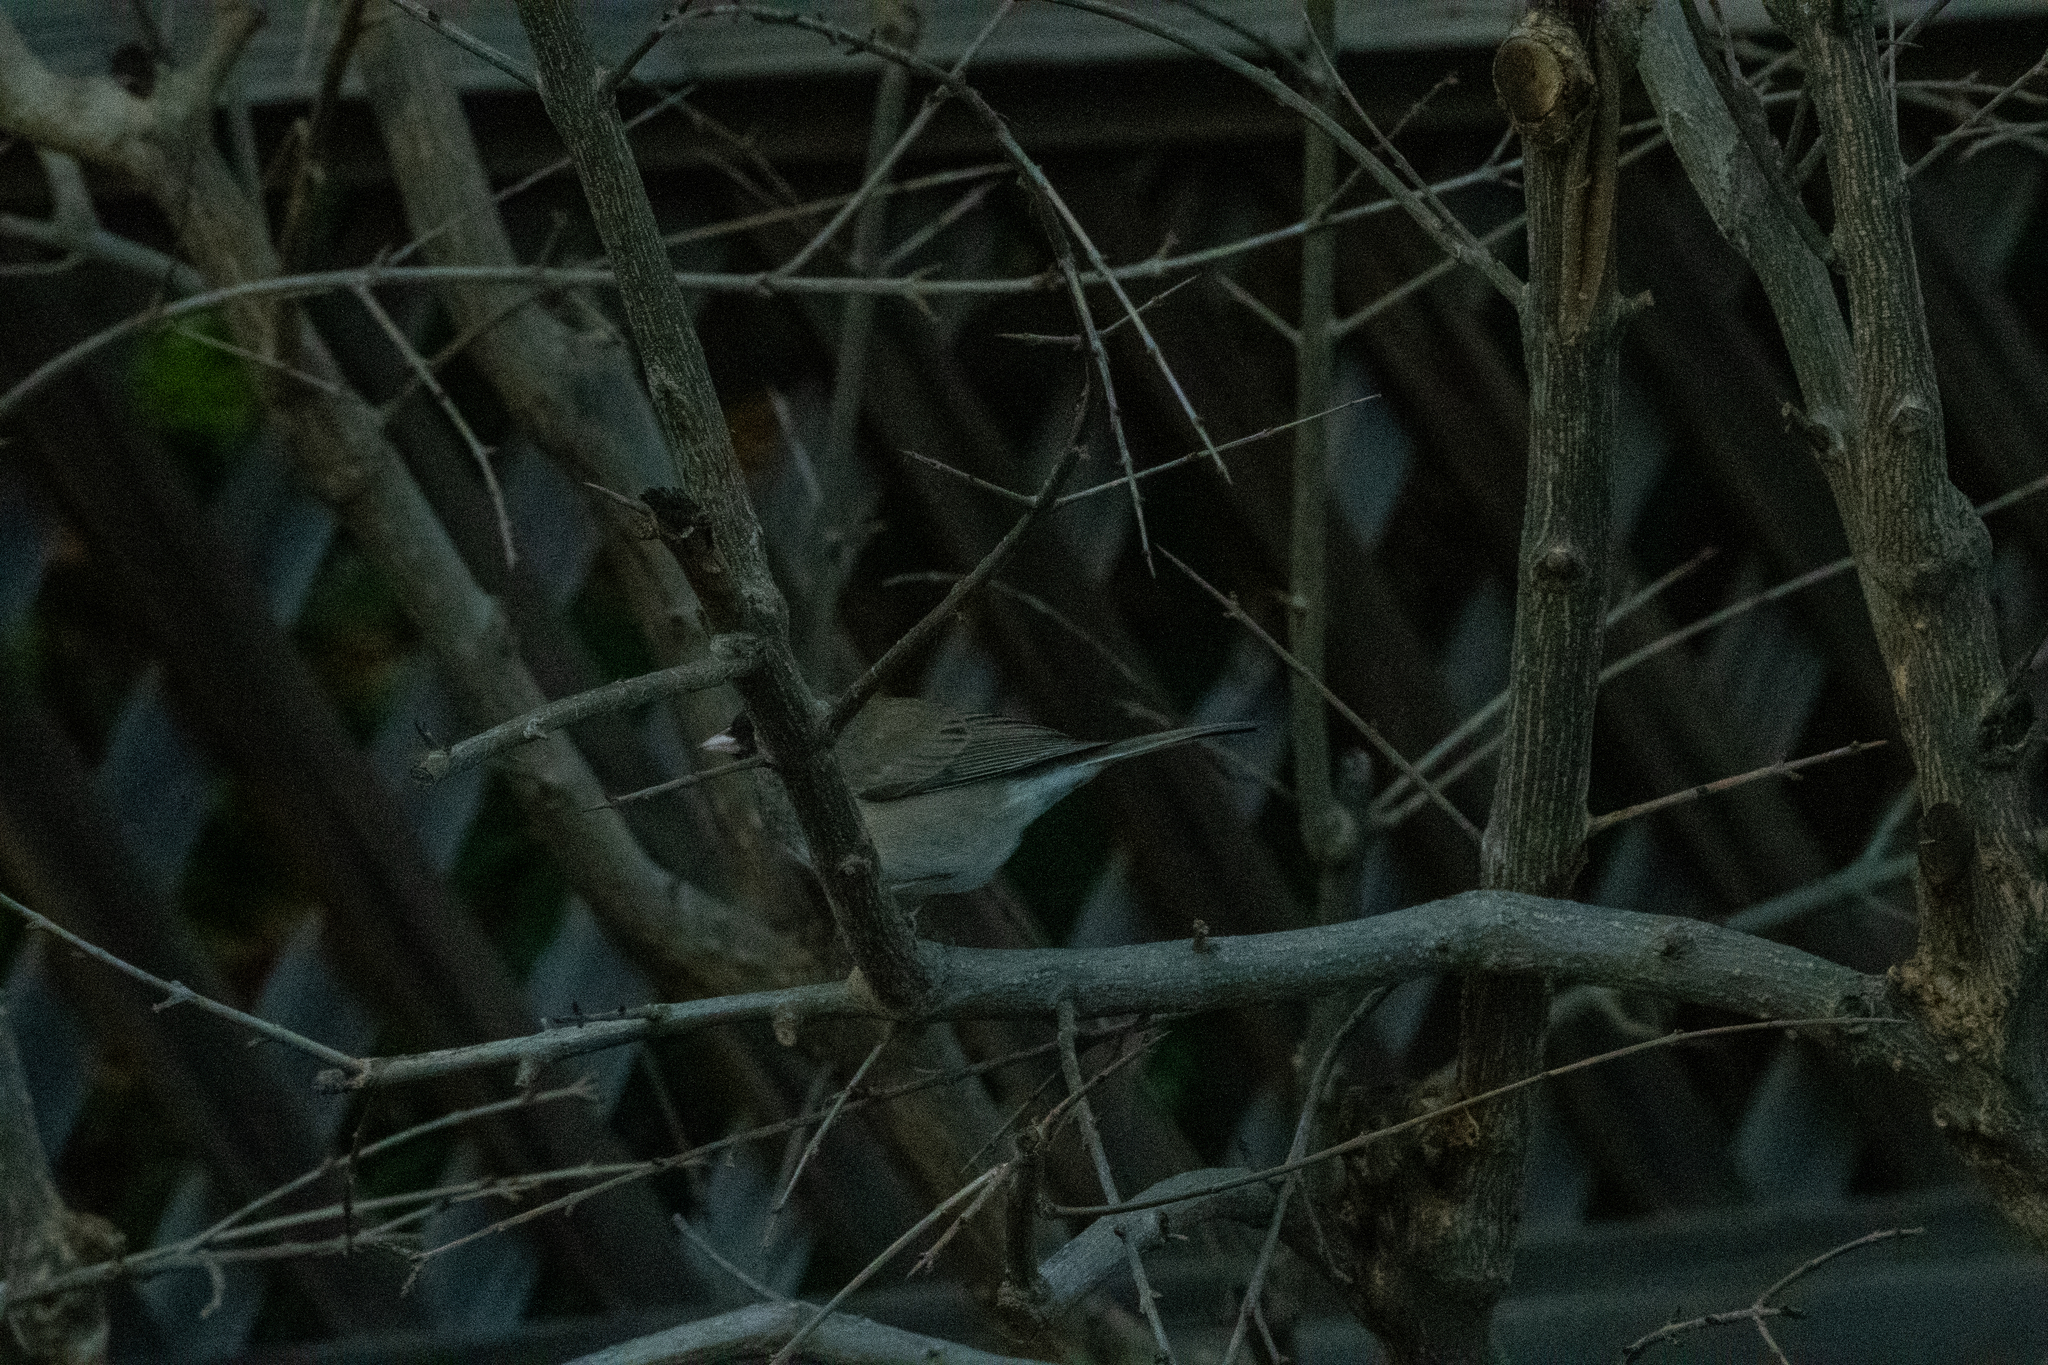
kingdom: Animalia
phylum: Chordata
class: Aves
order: Passeriformes
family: Passerellidae
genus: Junco
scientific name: Junco hyemalis
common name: Dark-eyed junco
